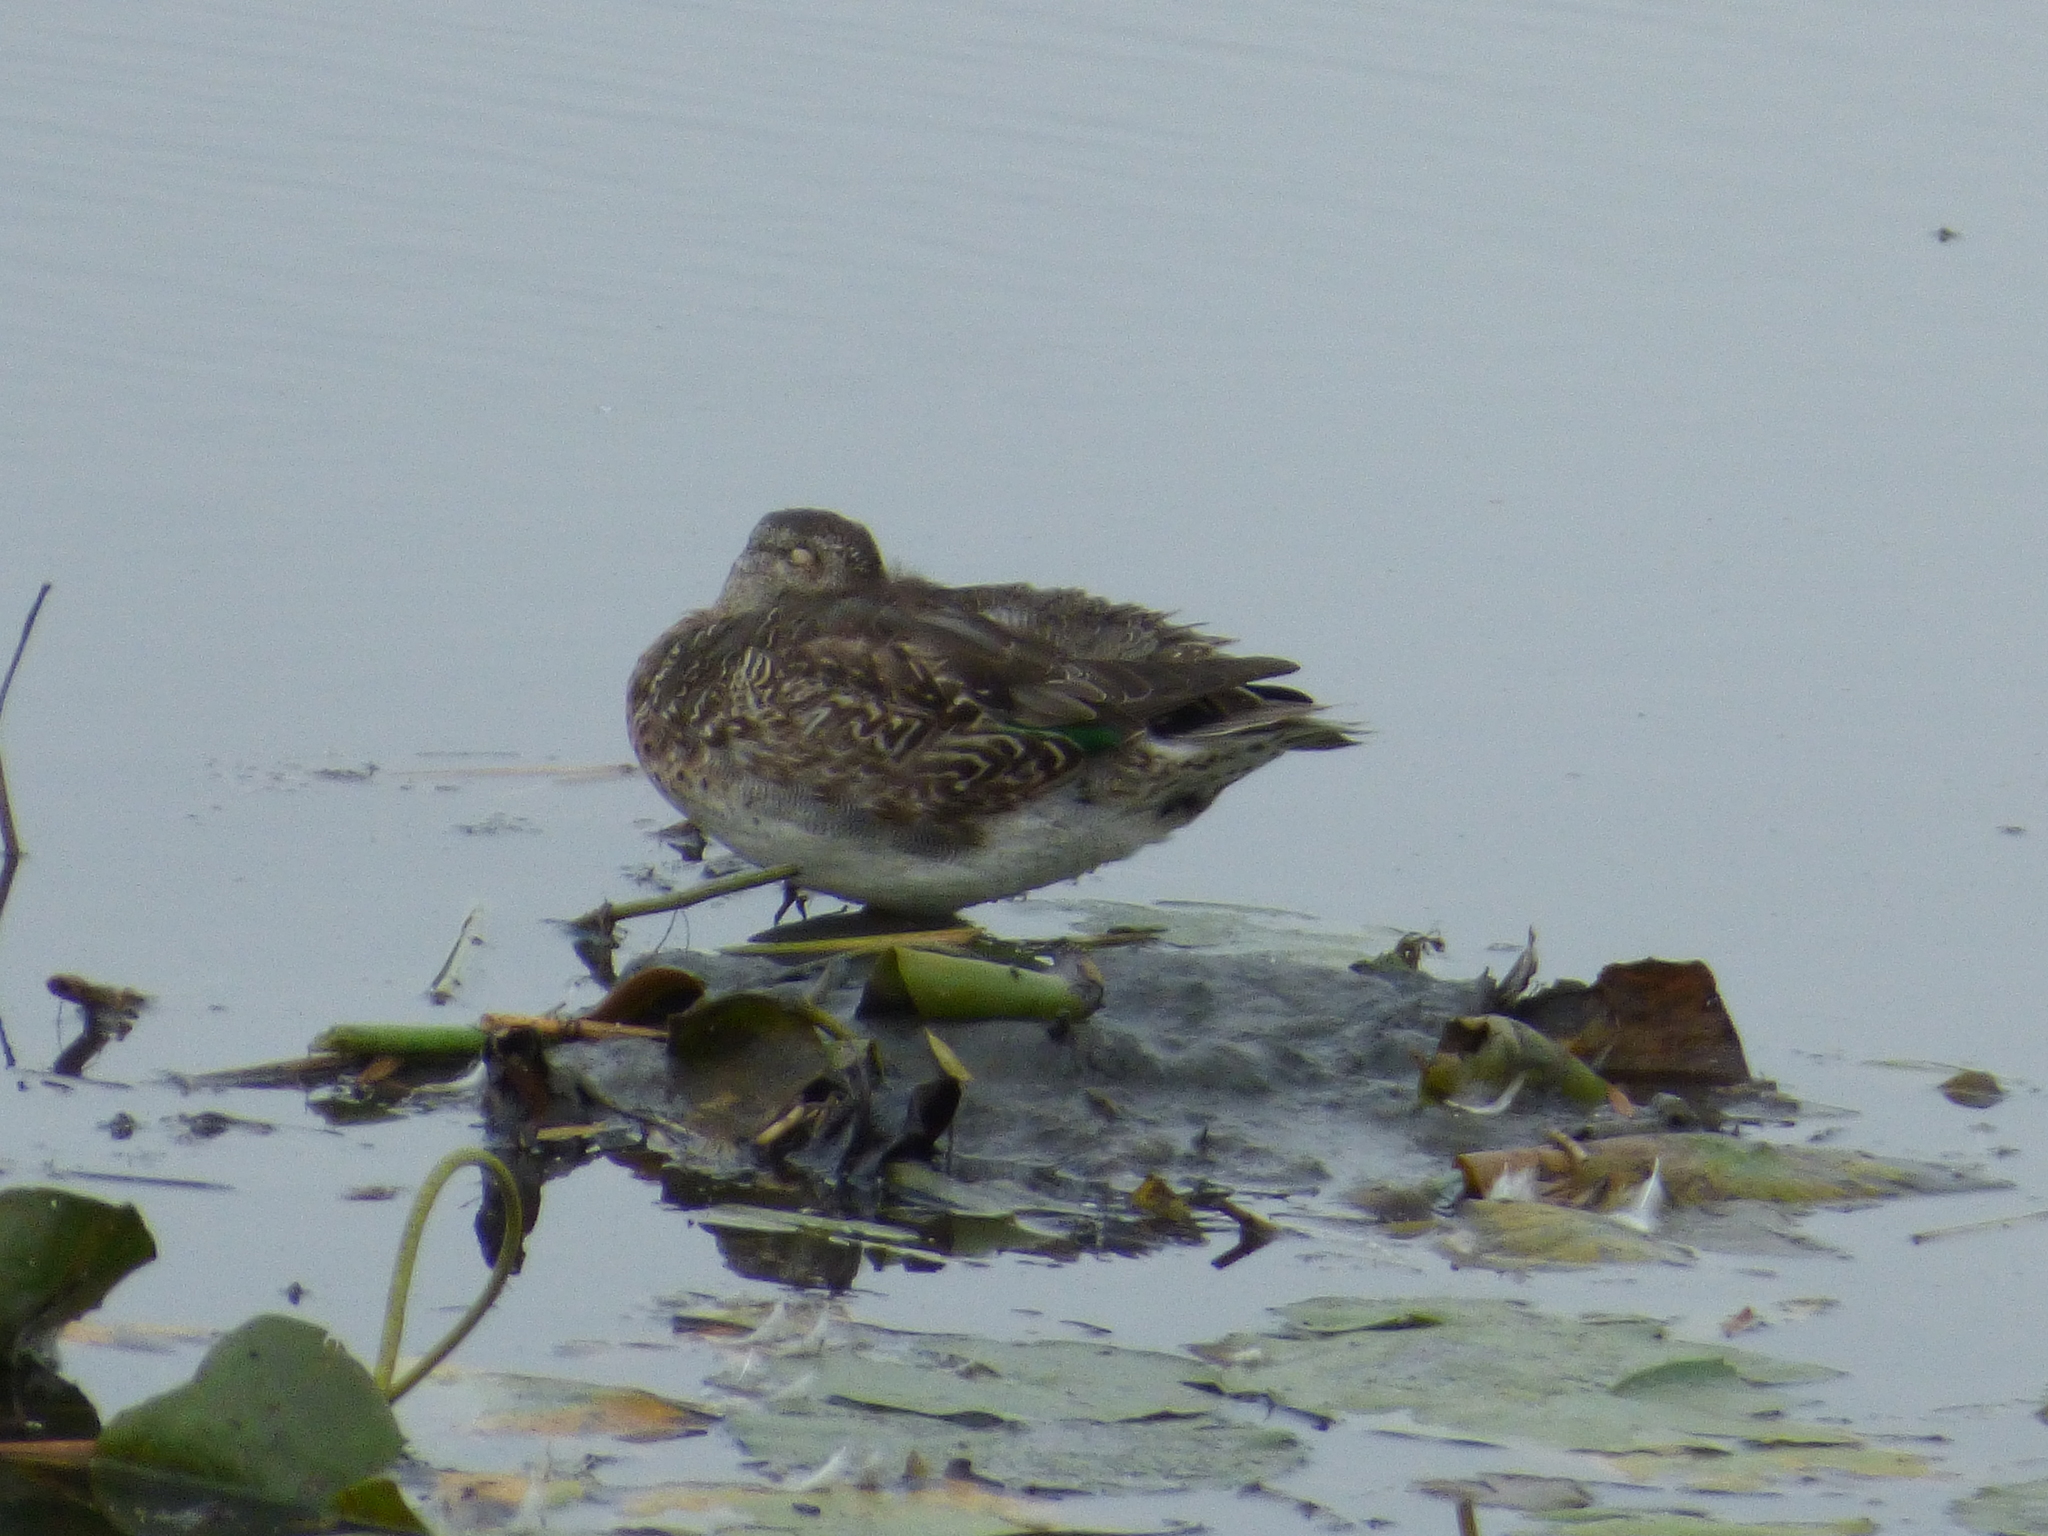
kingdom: Animalia
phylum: Chordata
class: Aves
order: Anseriformes
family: Anatidae
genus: Anas
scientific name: Anas crecca
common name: Eurasian teal
